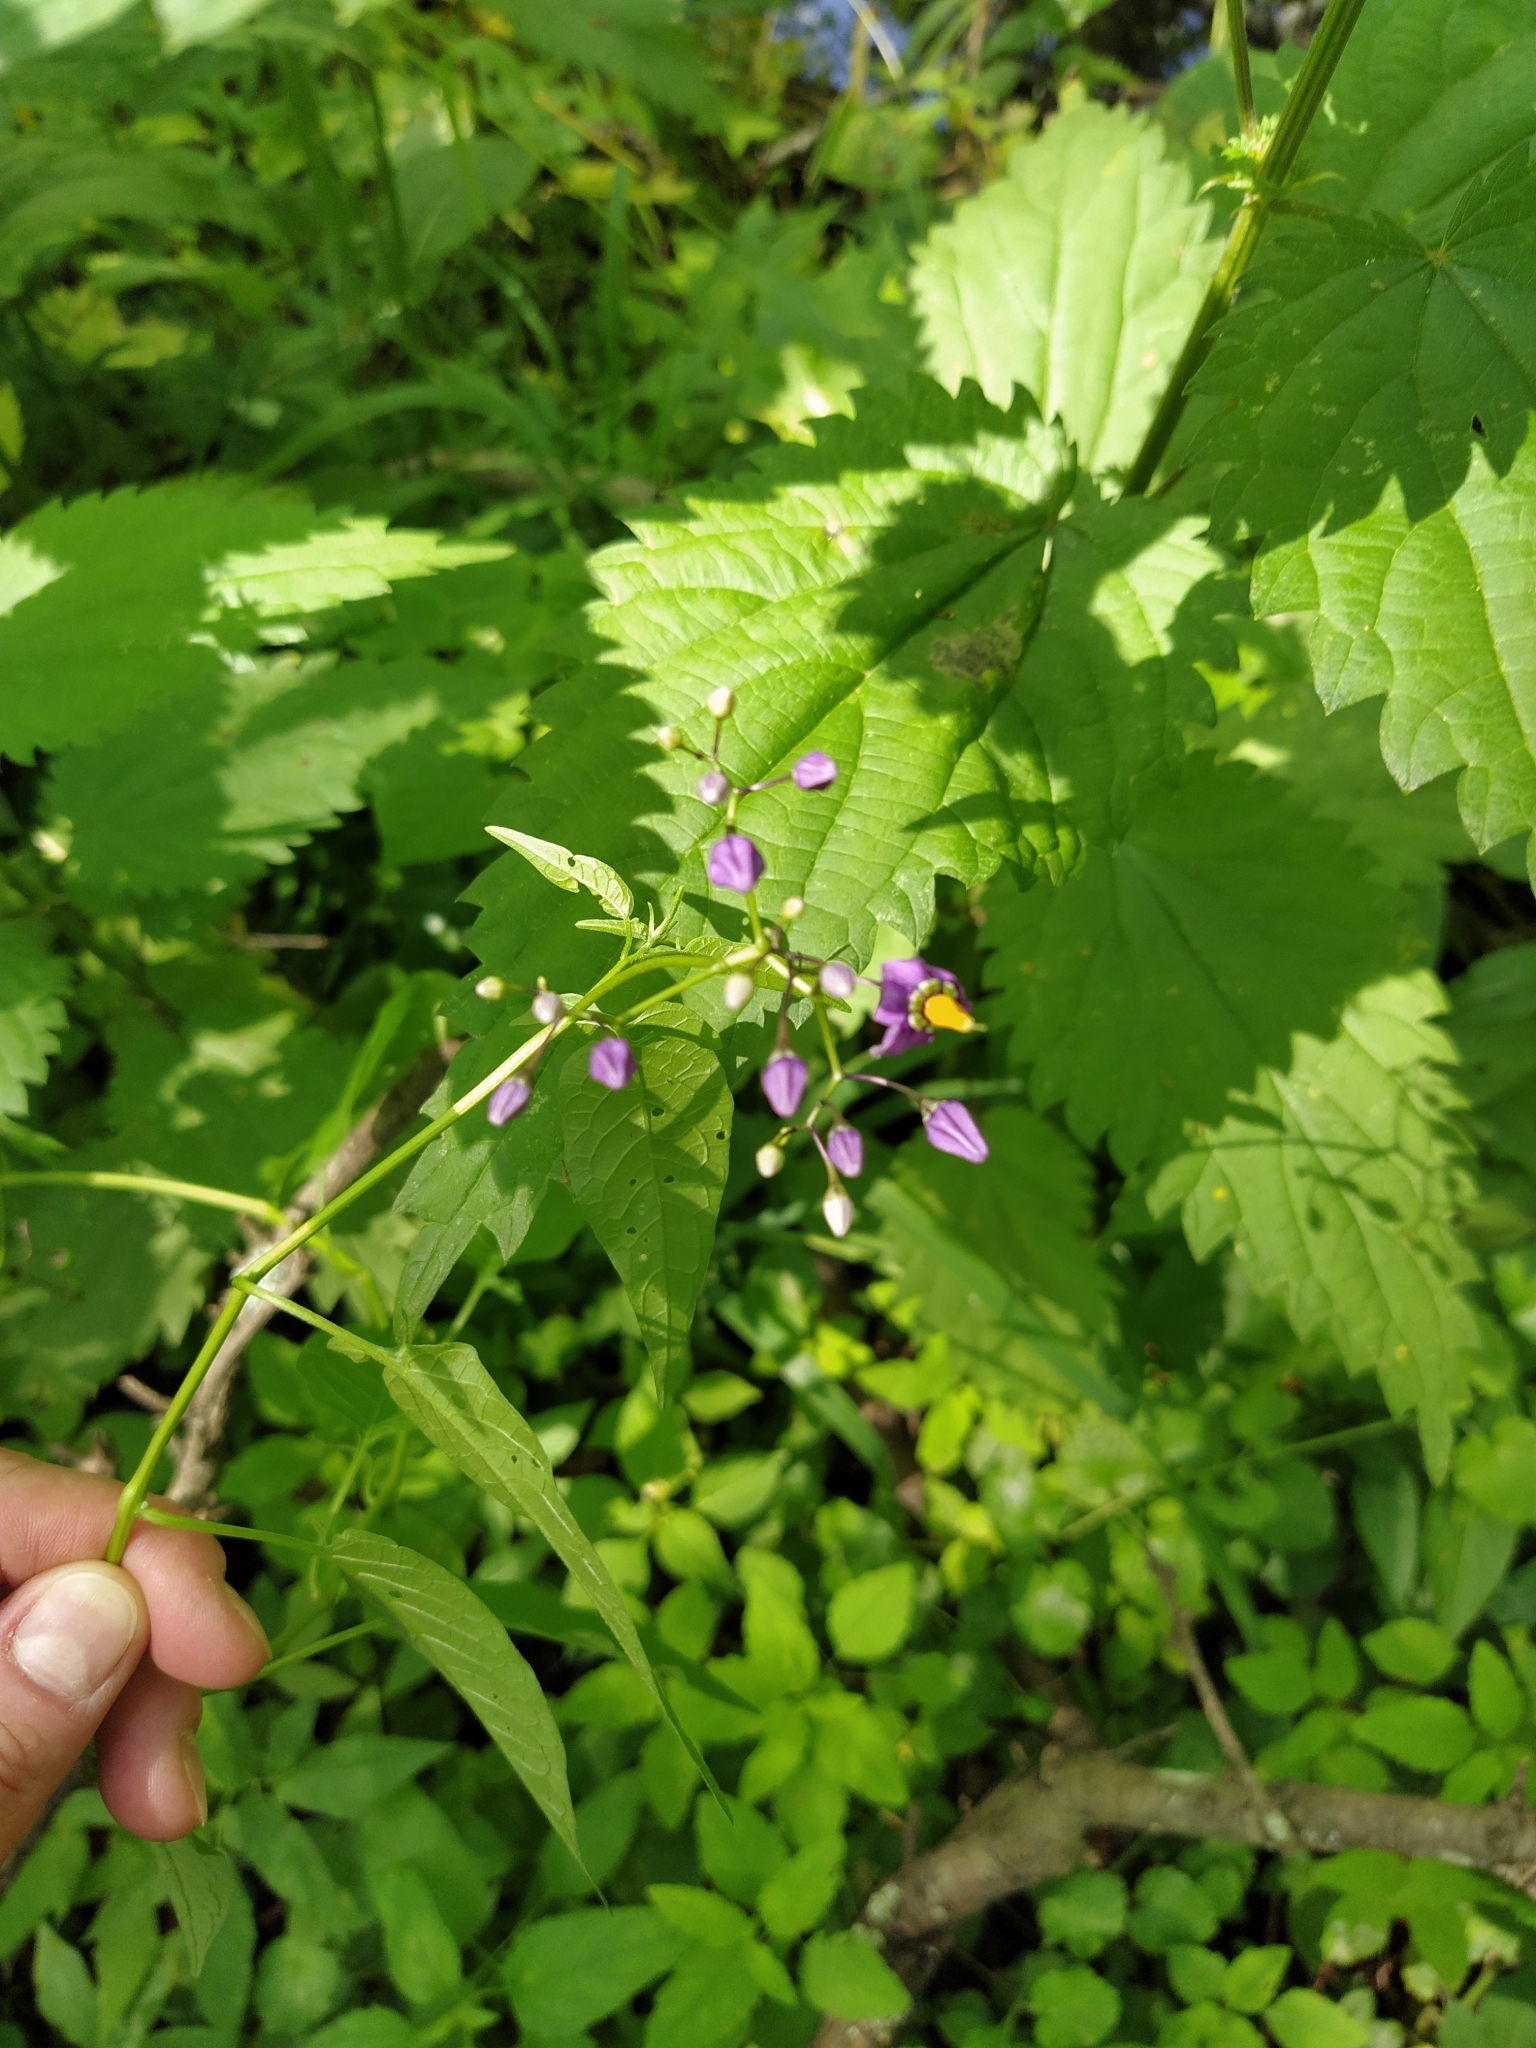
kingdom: Plantae
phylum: Tracheophyta
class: Magnoliopsida
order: Solanales
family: Solanaceae
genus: Solanum
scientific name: Solanum dulcamara
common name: Climbing nightshade
